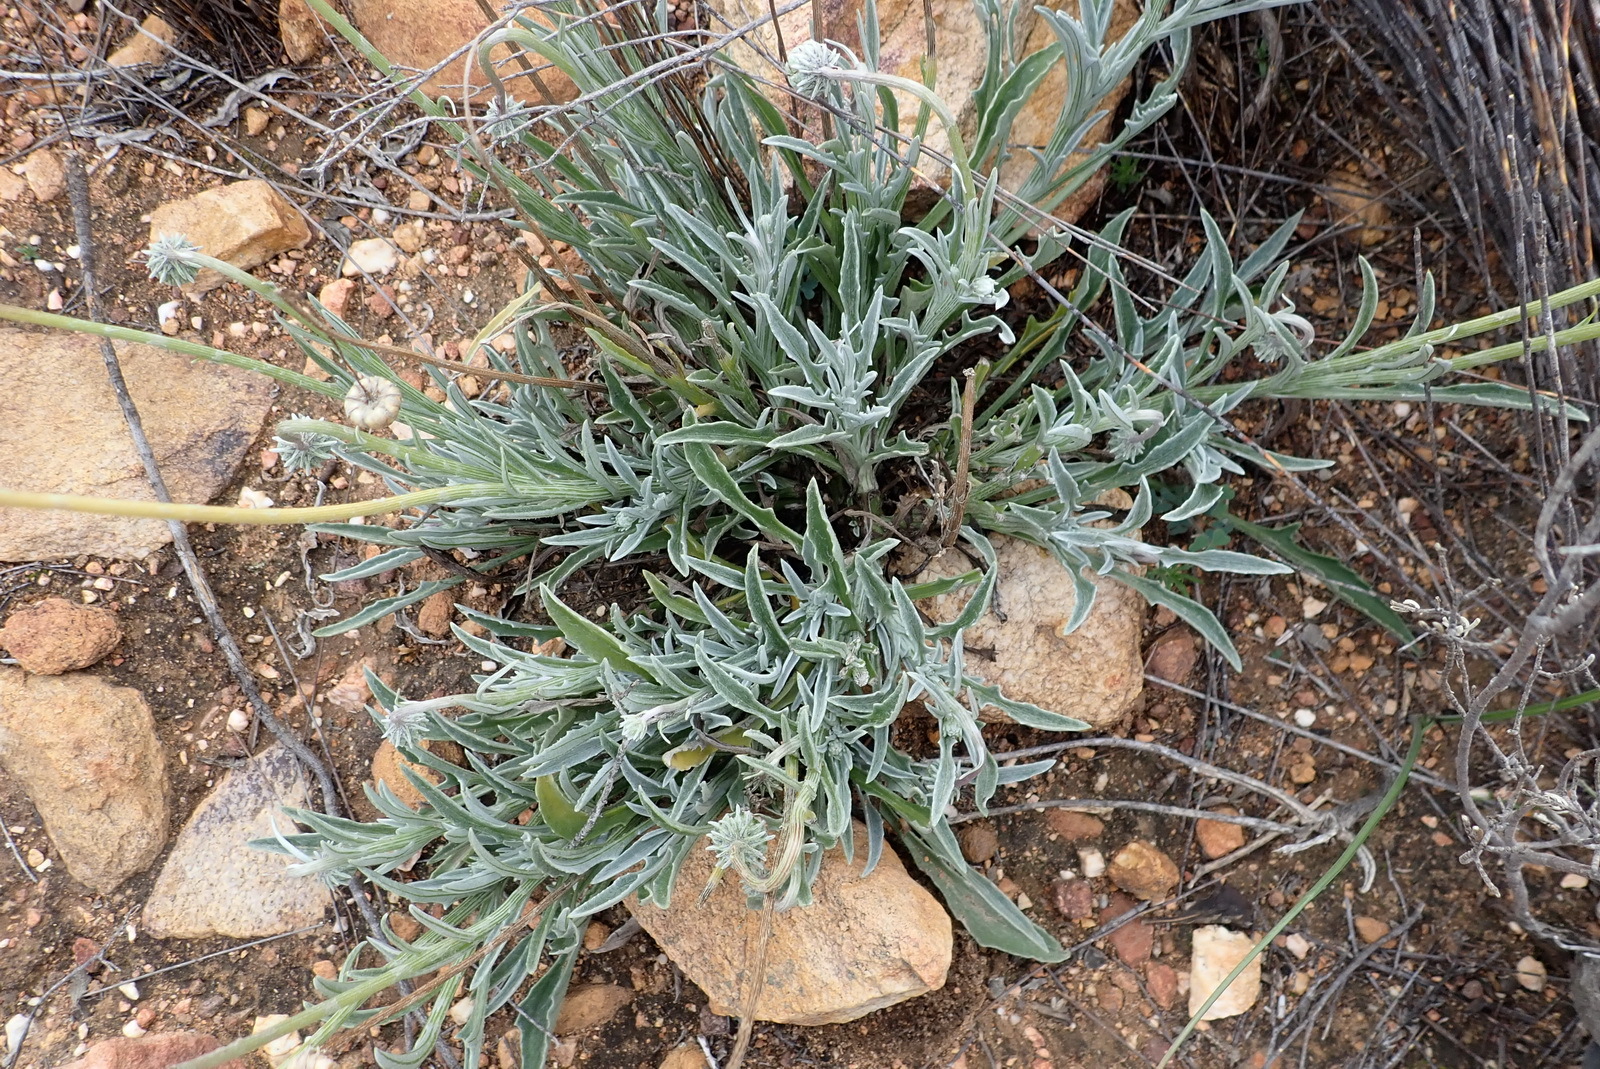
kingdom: Plantae
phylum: Tracheophyta
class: Magnoliopsida
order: Asterales
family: Asteraceae
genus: Arctotis
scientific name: Arctotis lanceolata
